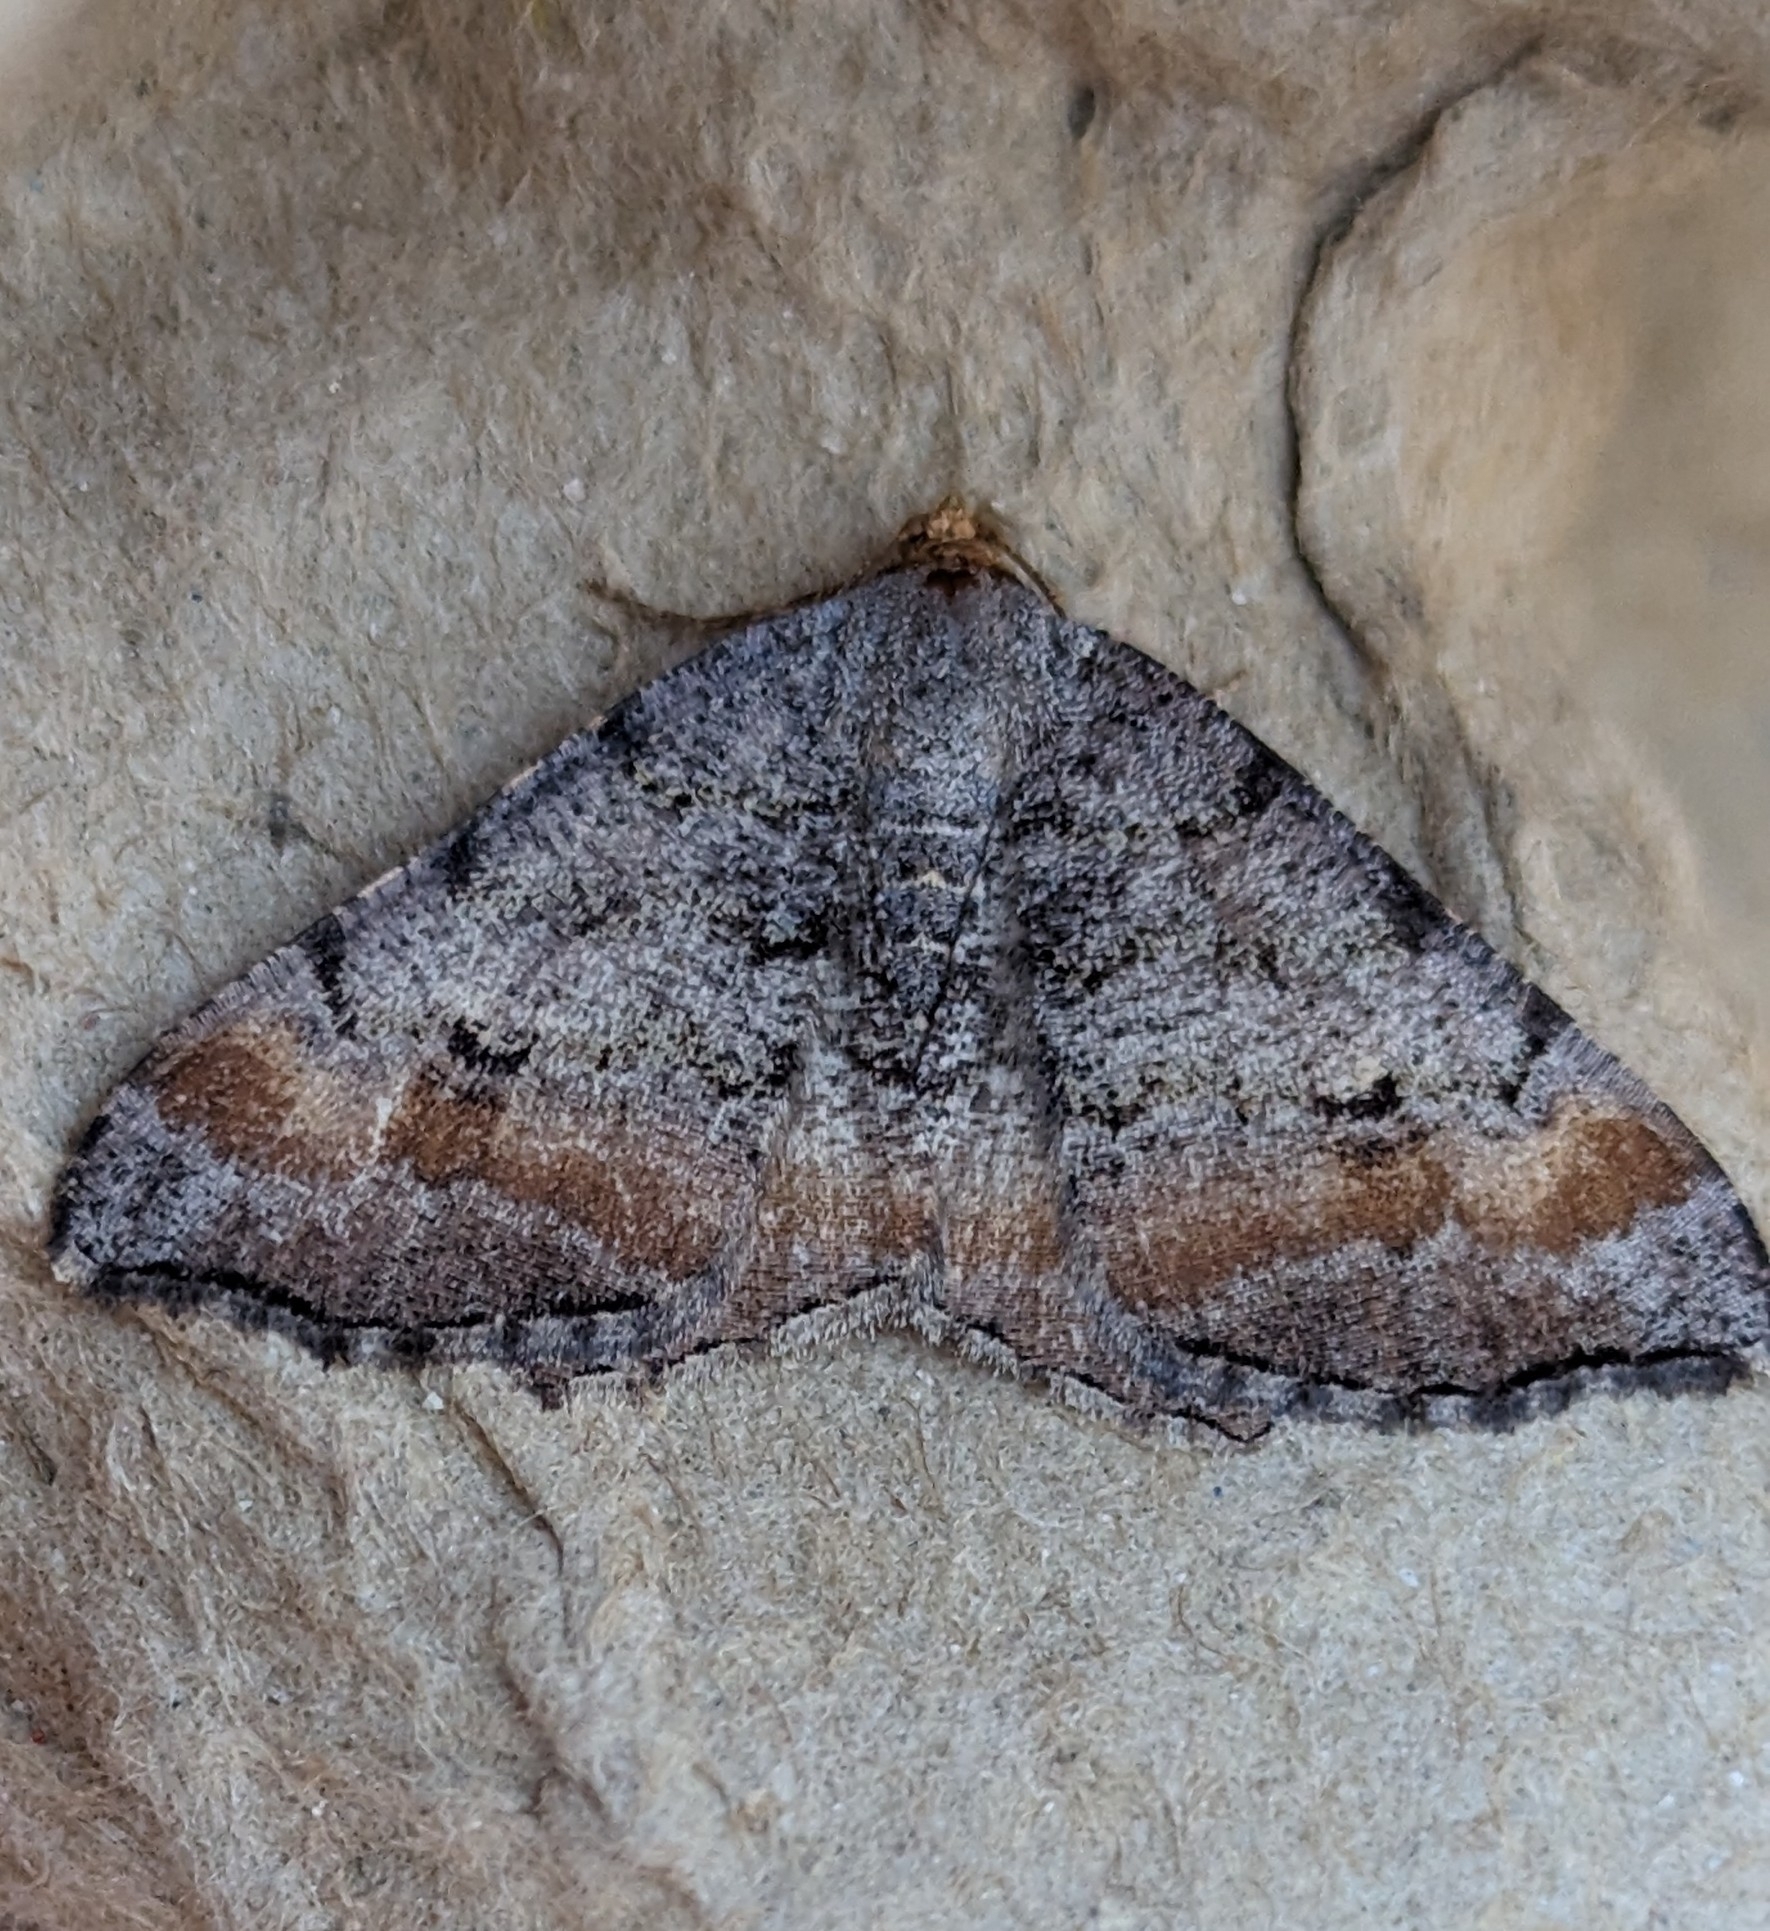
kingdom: Animalia
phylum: Arthropoda
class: Insecta
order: Lepidoptera
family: Geometridae
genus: Macaria
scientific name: Macaria adonis
